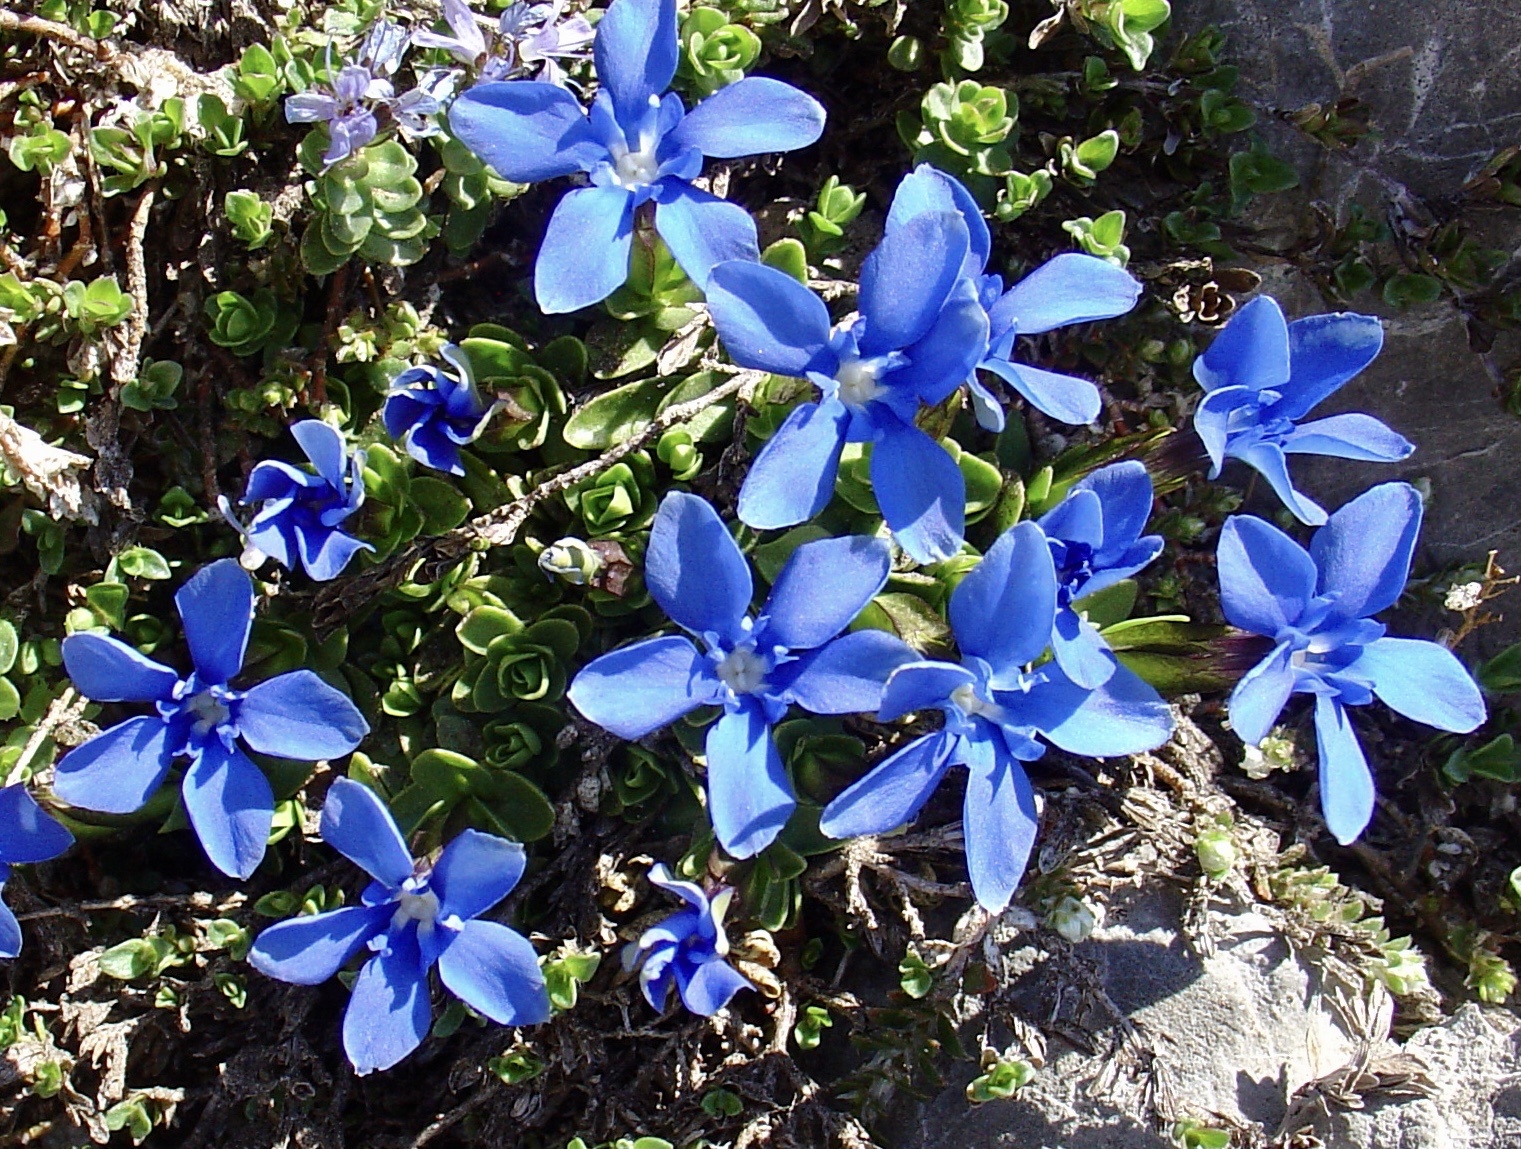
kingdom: Plantae
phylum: Tracheophyta
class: Magnoliopsida
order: Gentianales
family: Gentianaceae
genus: Gentiana
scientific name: Gentiana verna
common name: Spring gentian
